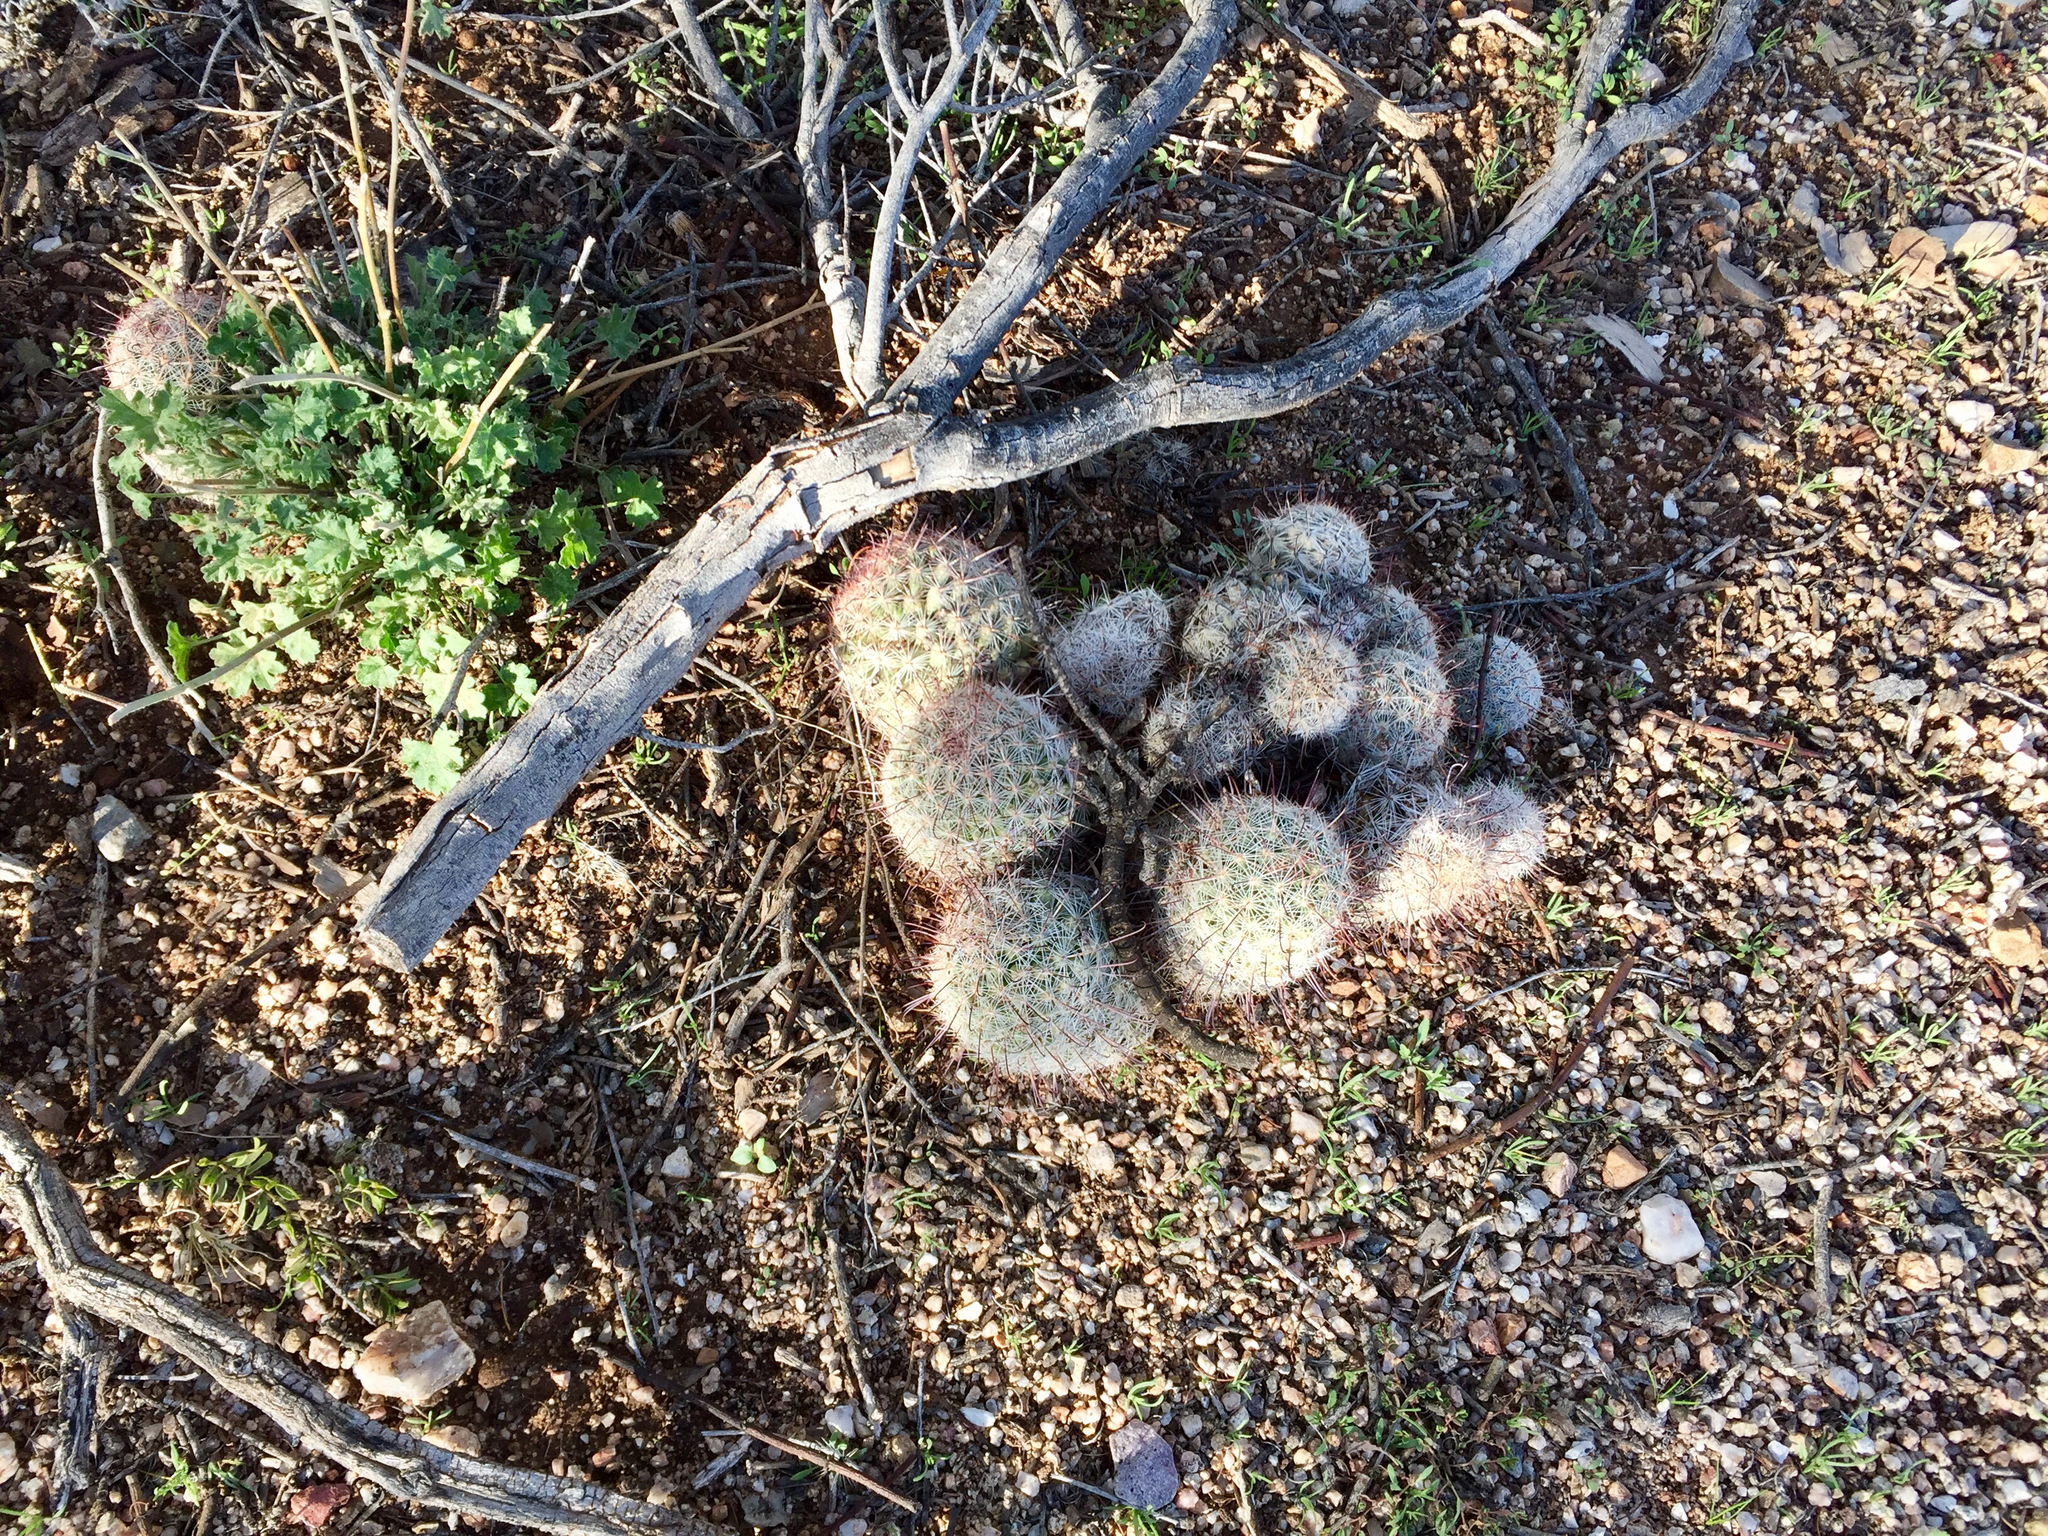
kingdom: Plantae
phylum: Tracheophyta
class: Magnoliopsida
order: Caryophyllales
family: Cactaceae
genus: Cochemiea
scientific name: Cochemiea grahamii
